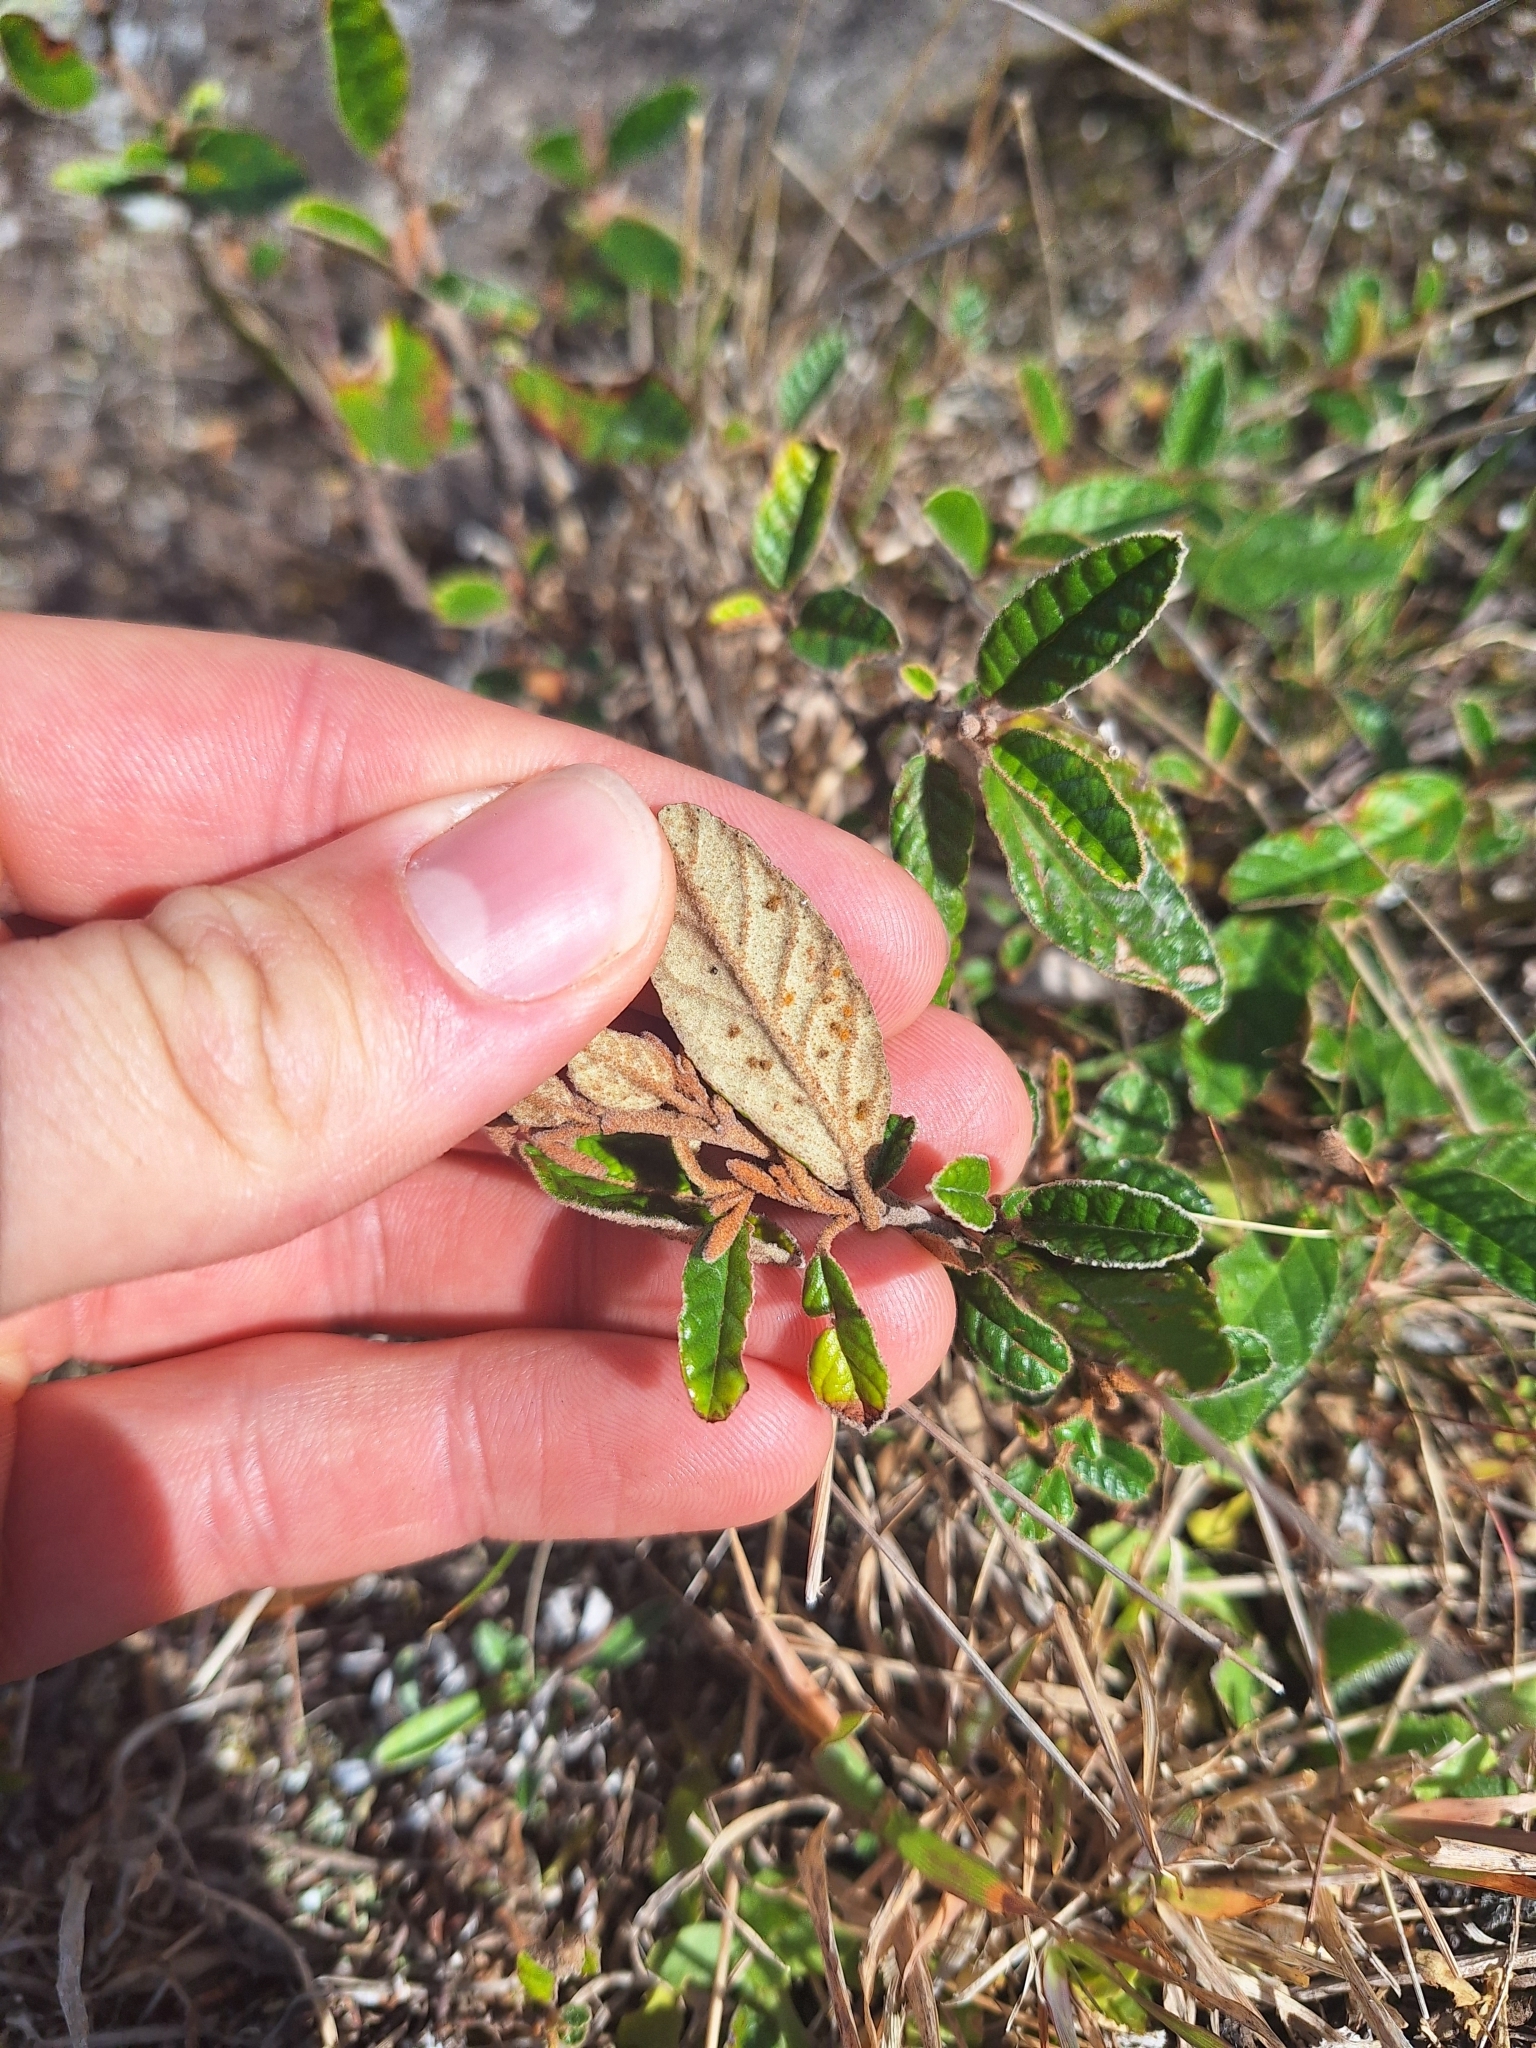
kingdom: Plantae
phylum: Tracheophyta
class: Magnoliopsida
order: Rosales
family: Rhamnaceae
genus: Pomaderris
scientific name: Pomaderris paniculosa
